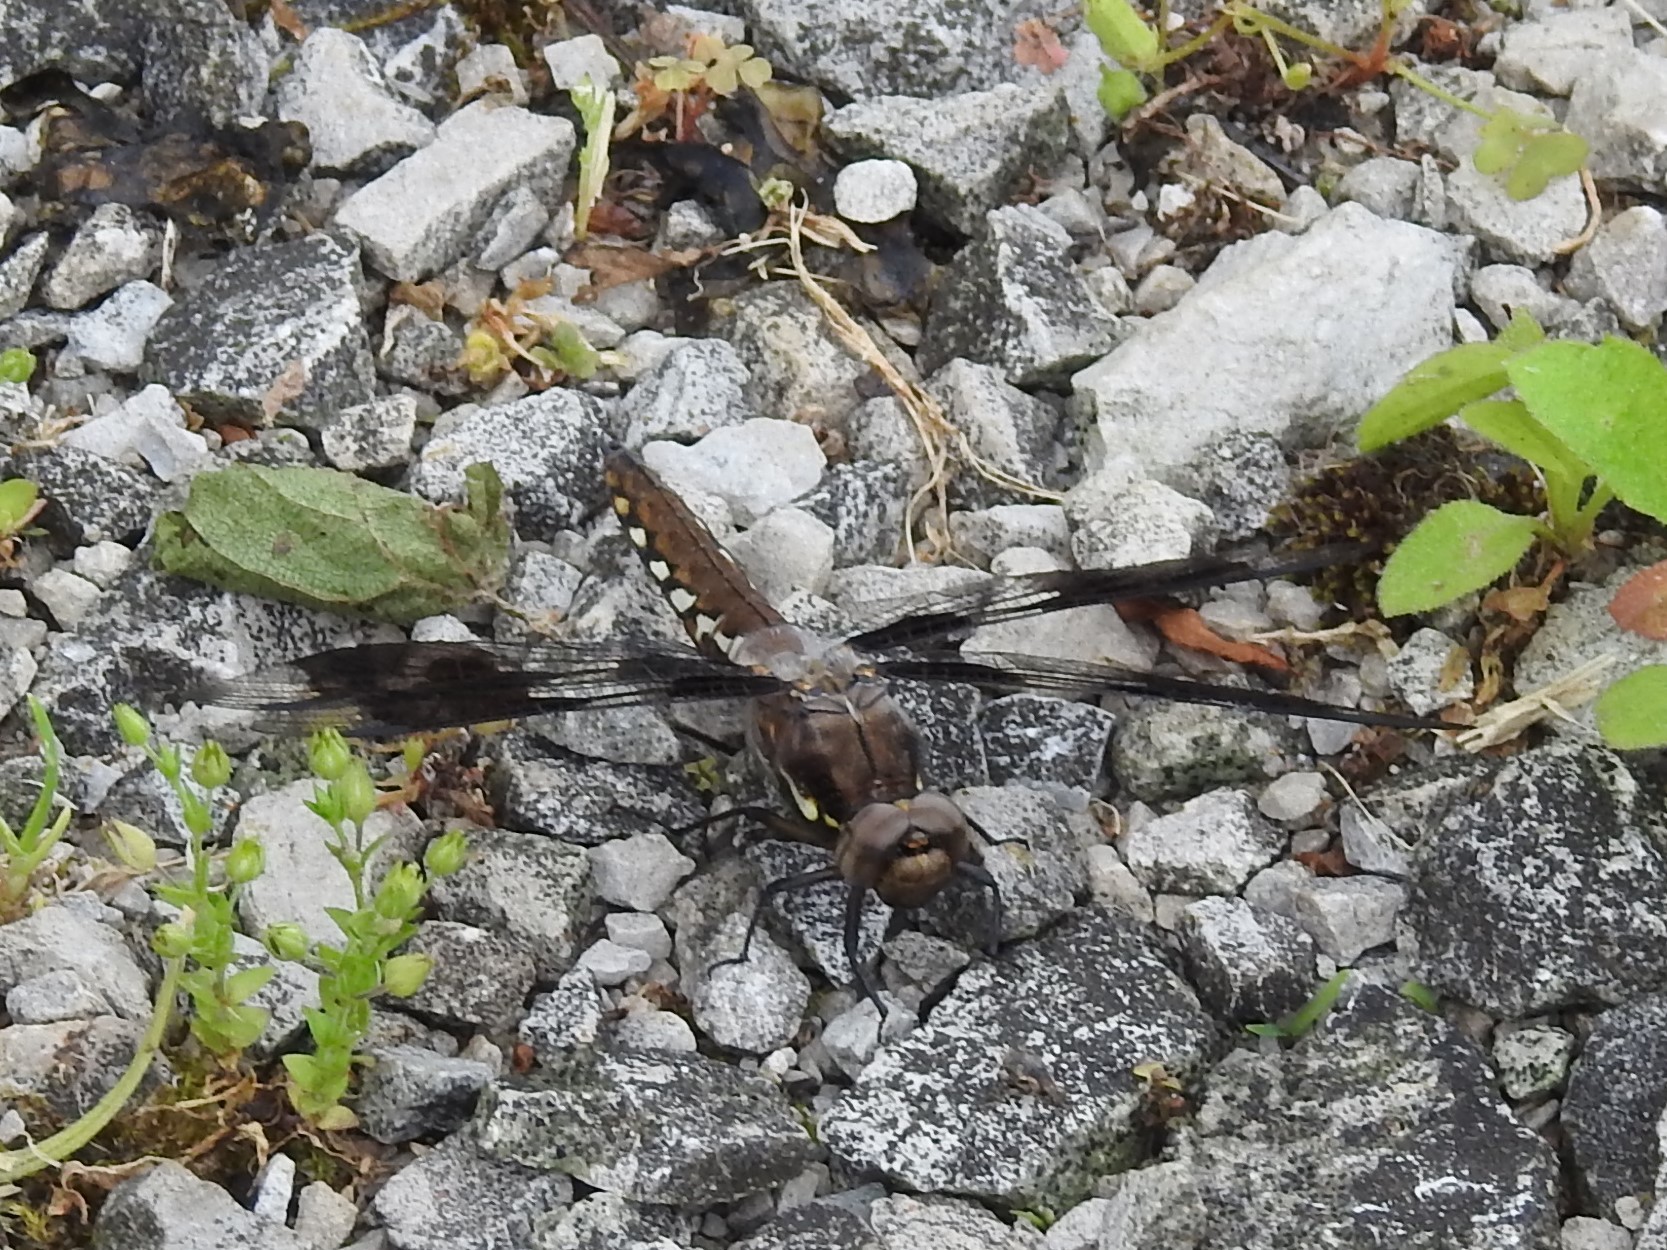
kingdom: Animalia
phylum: Arthropoda
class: Insecta
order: Odonata
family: Libellulidae
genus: Plathemis
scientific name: Plathemis lydia
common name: Common whitetail
